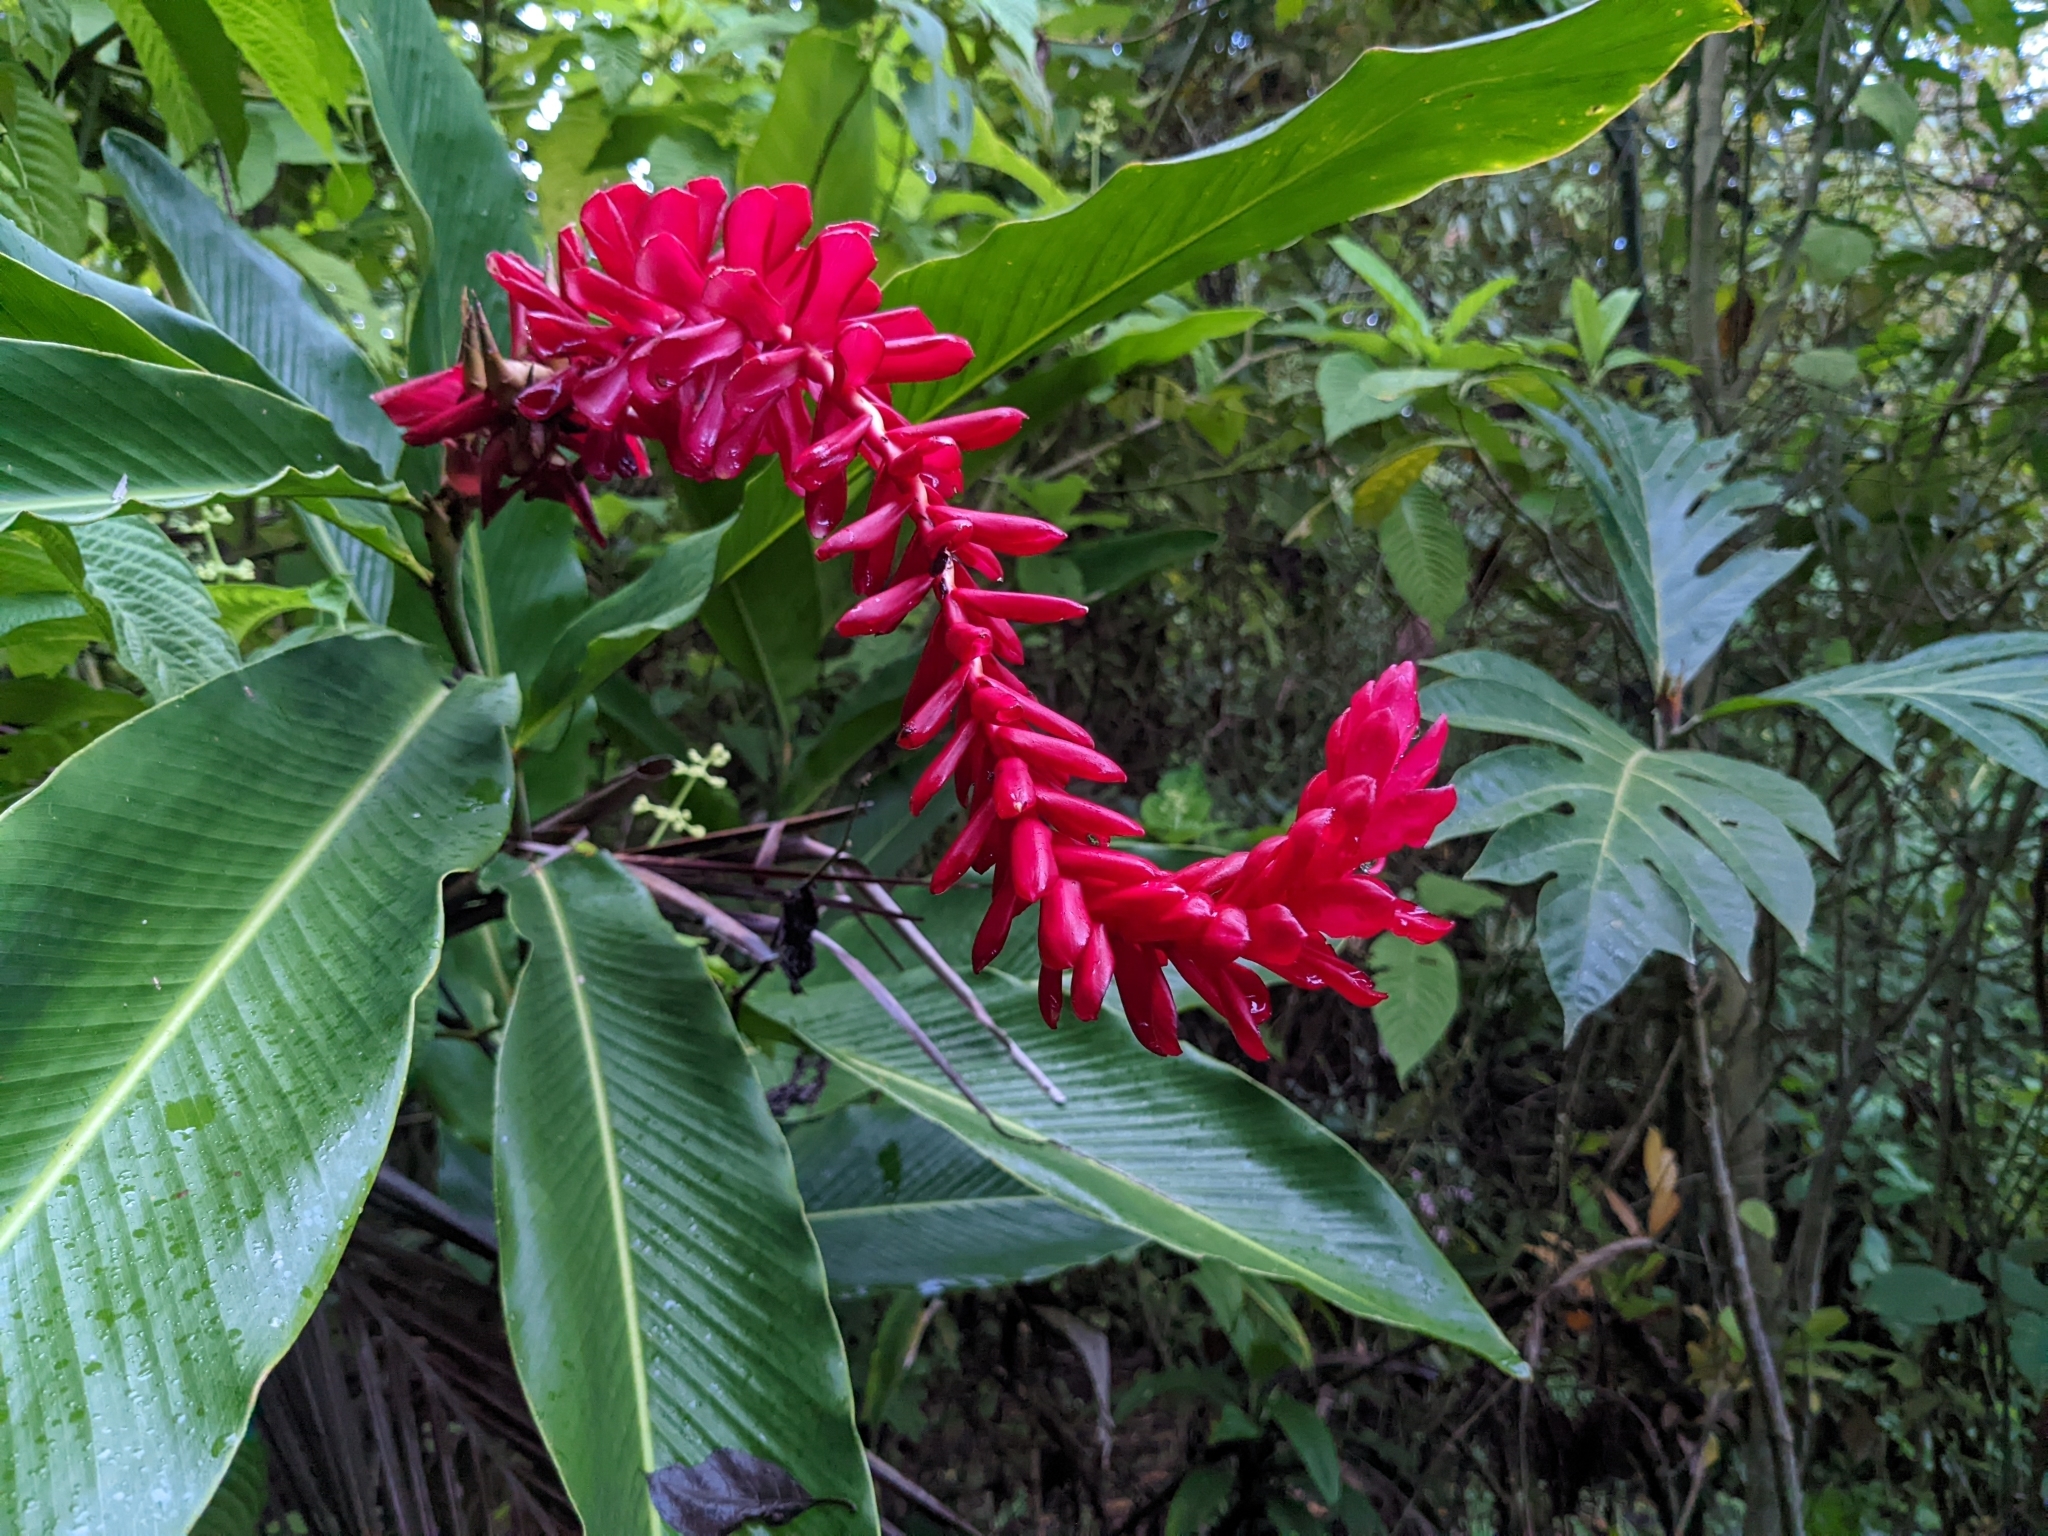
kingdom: Plantae
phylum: Tracheophyta
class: Liliopsida
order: Zingiberales
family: Zingiberaceae
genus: Alpinia
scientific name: Alpinia purpurata
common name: Red ginger
